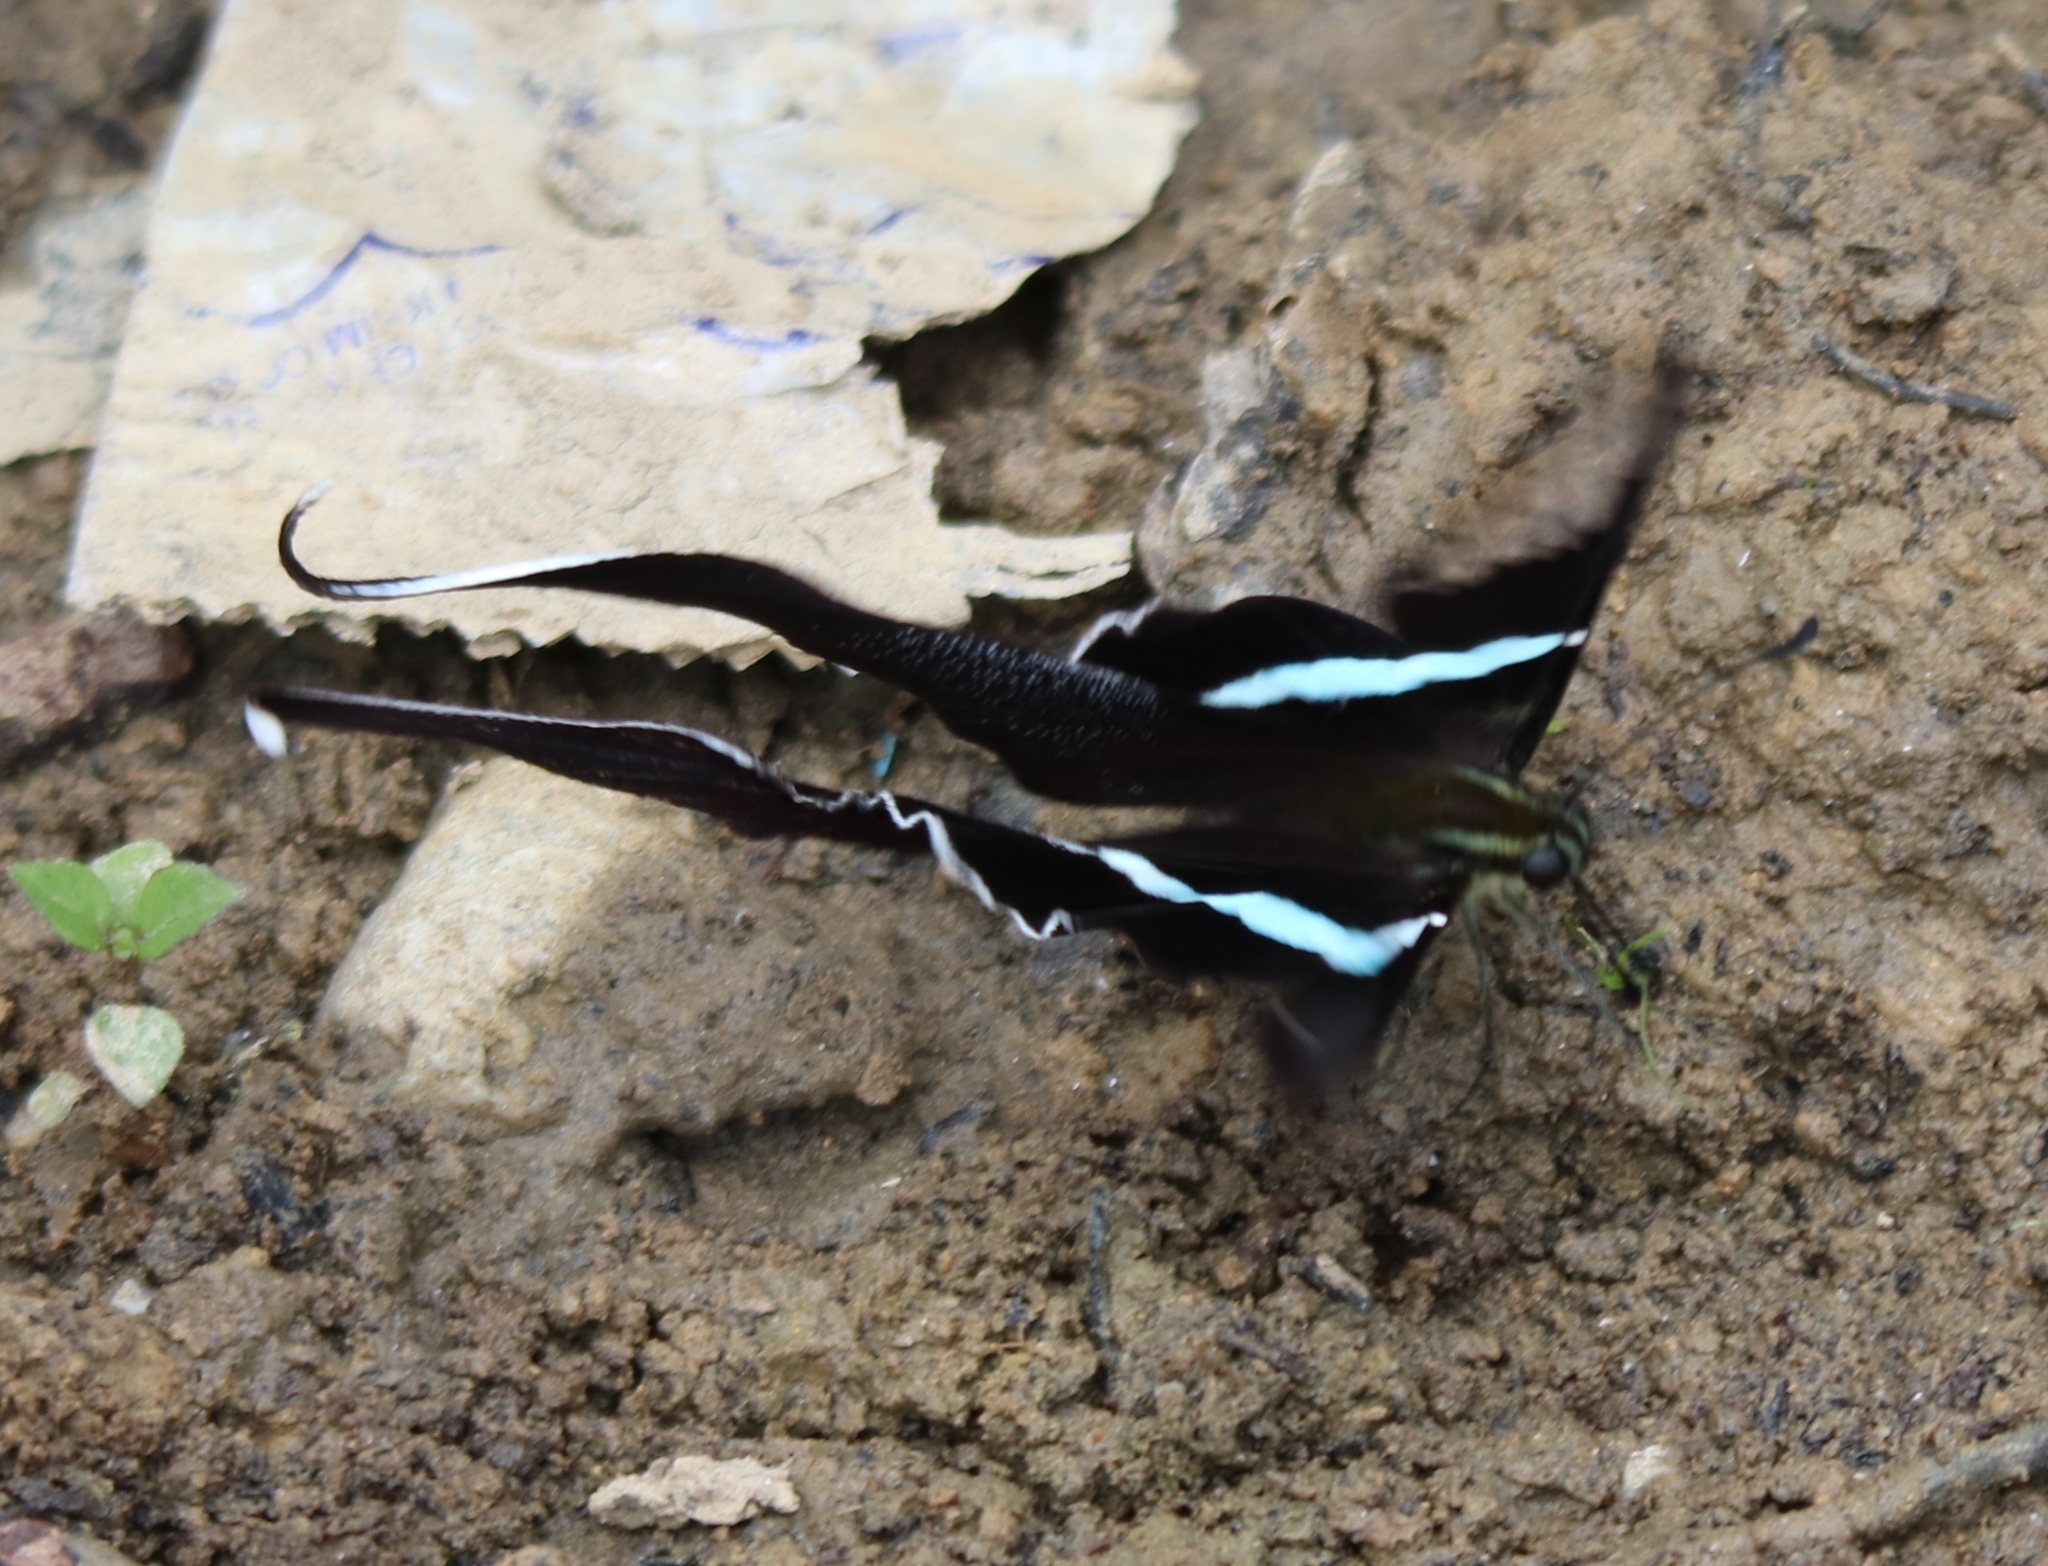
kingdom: Animalia
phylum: Arthropoda
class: Insecta
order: Lepidoptera
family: Papilionidae
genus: Lamproptera
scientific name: Lamproptera meges
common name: Green dragontail
